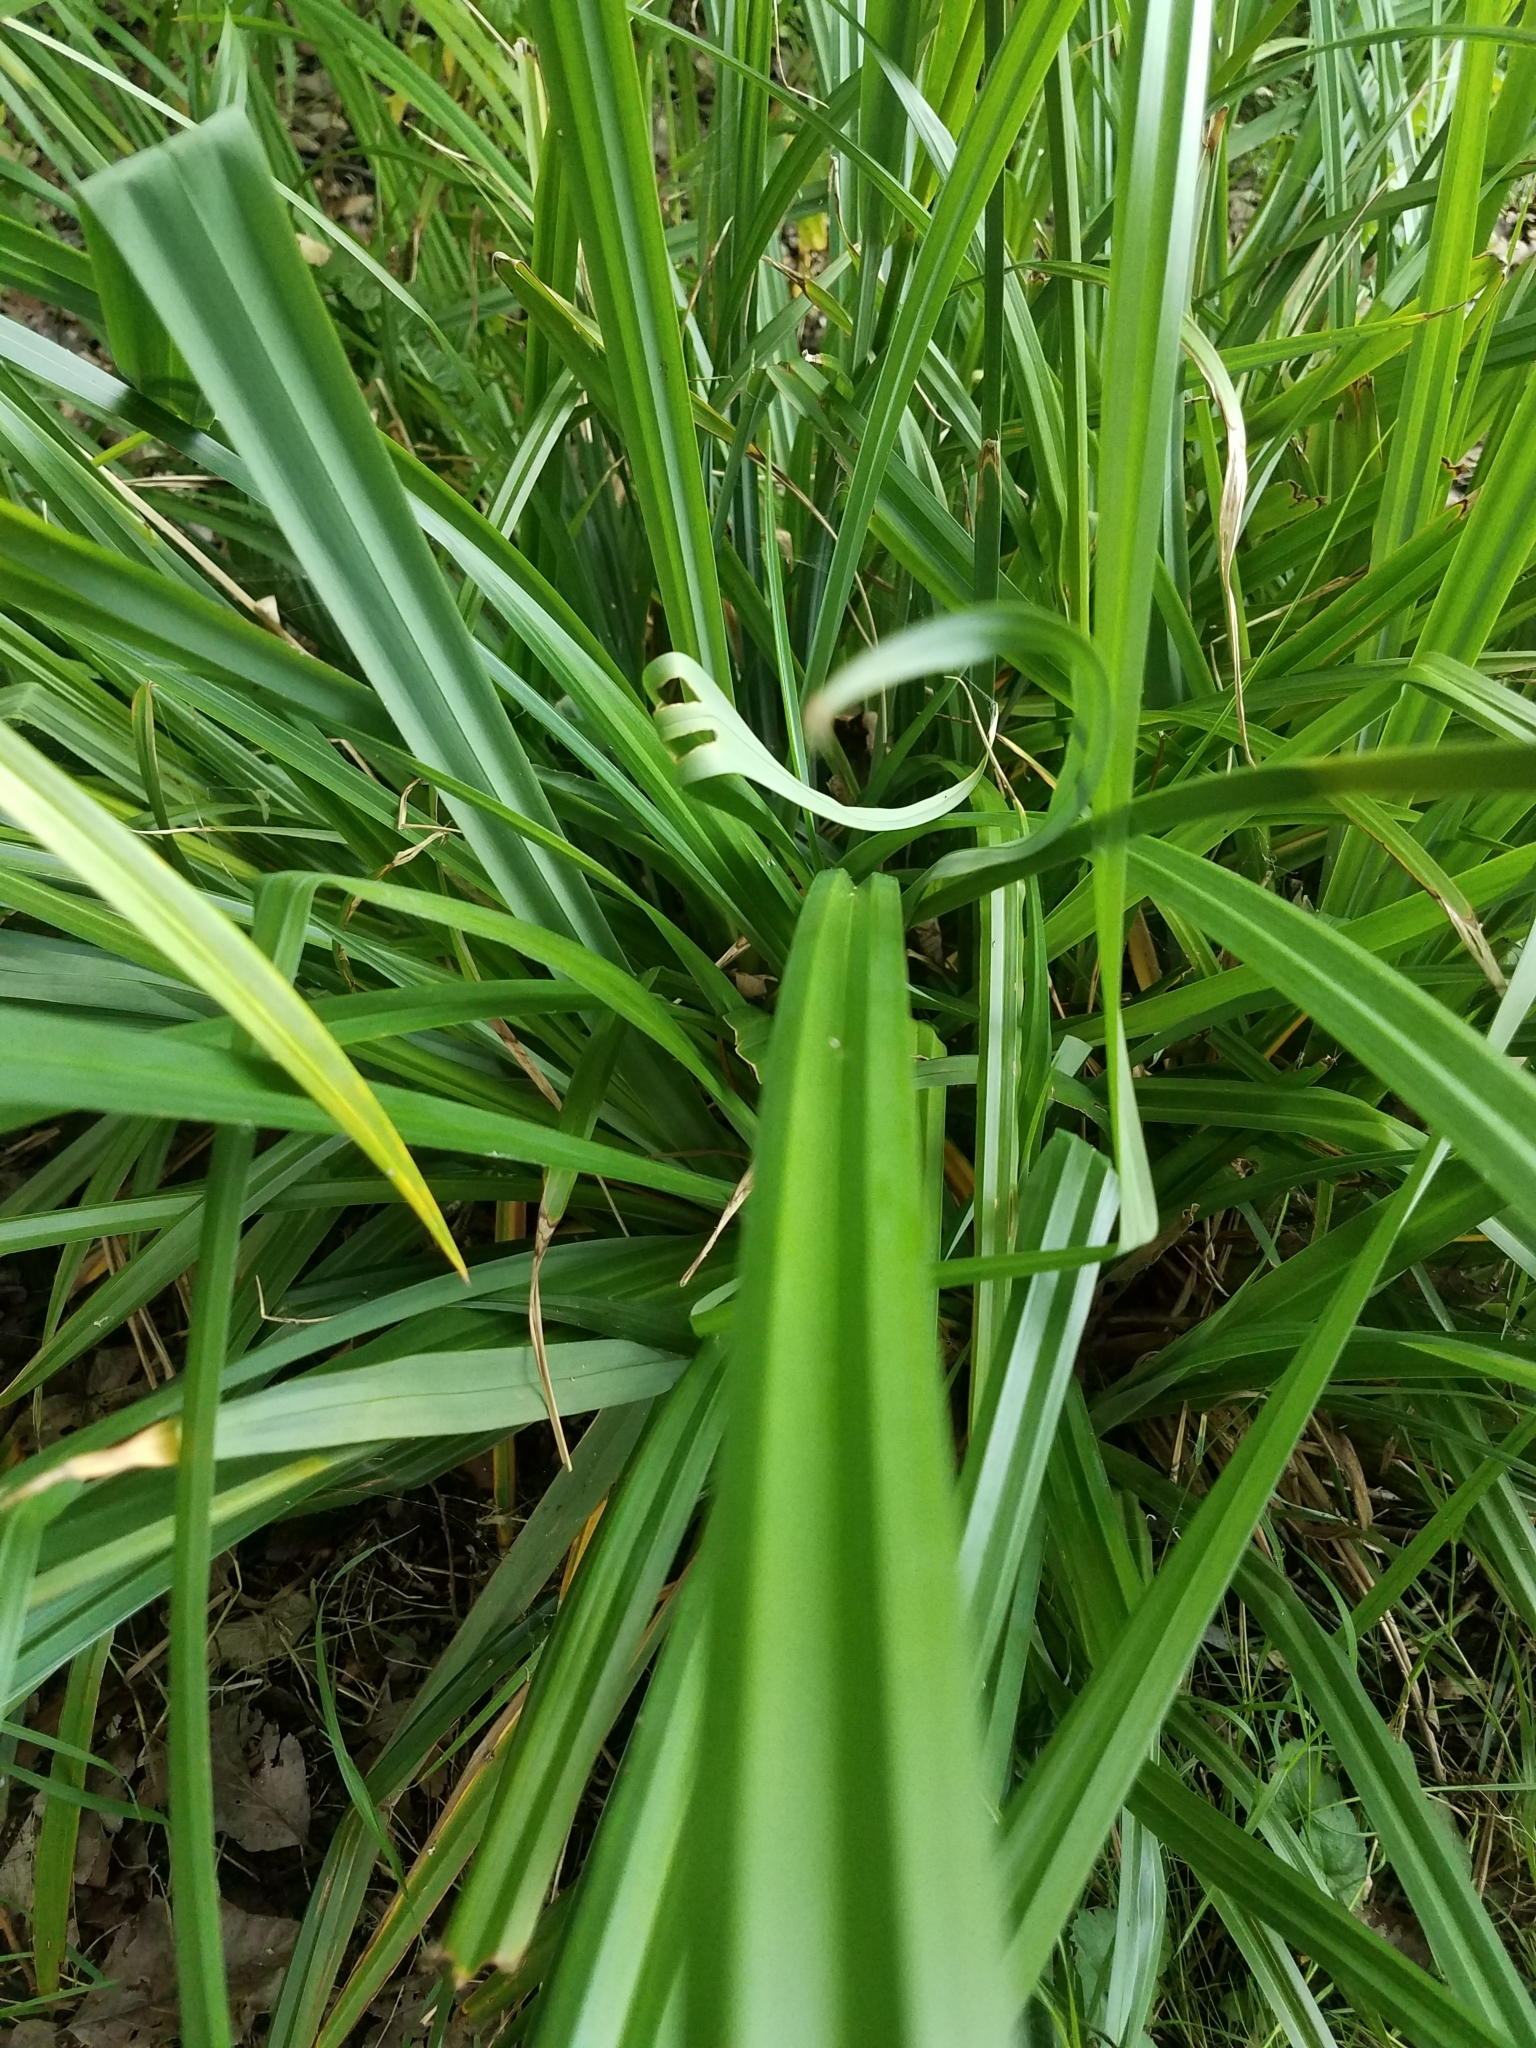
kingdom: Plantae
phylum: Tracheophyta
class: Liliopsida
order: Poales
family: Cyperaceae
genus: Carex
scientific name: Carex pendula
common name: Pendulous sedge
